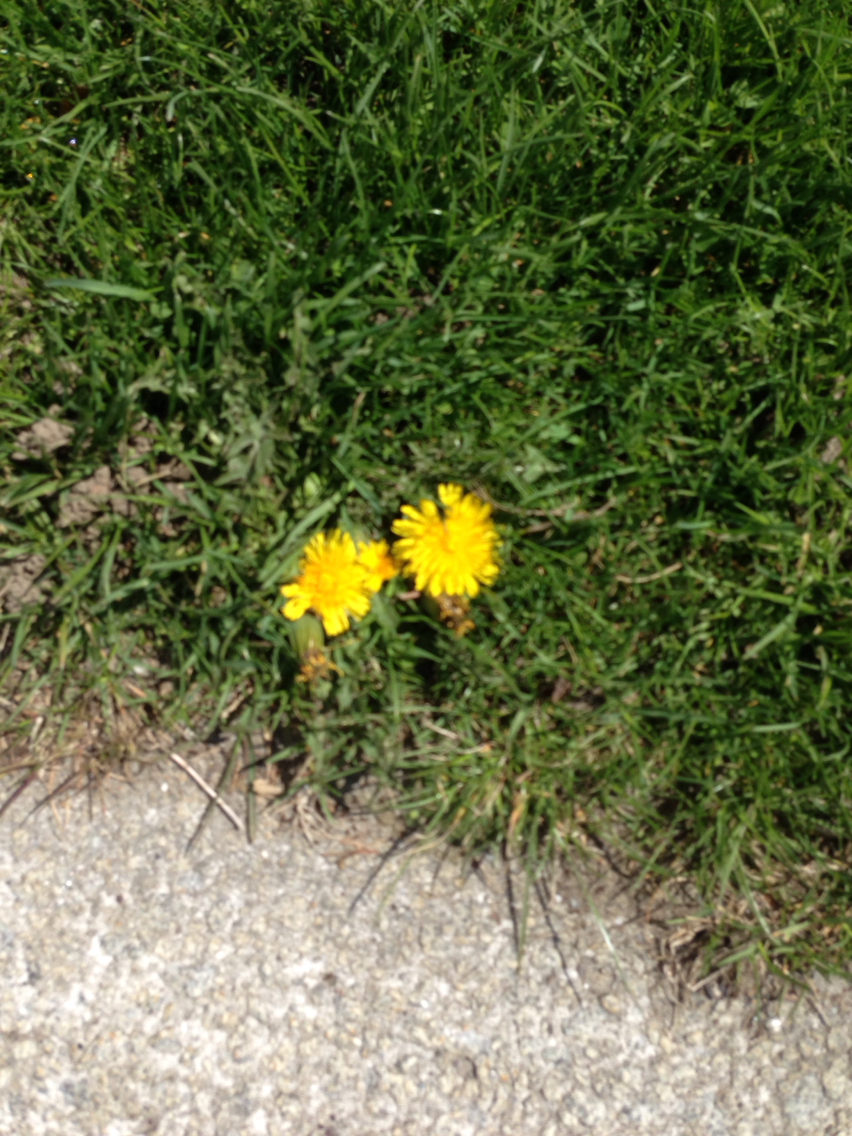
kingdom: Plantae
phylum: Tracheophyta
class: Magnoliopsida
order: Asterales
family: Asteraceae
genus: Taraxacum
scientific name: Taraxacum
